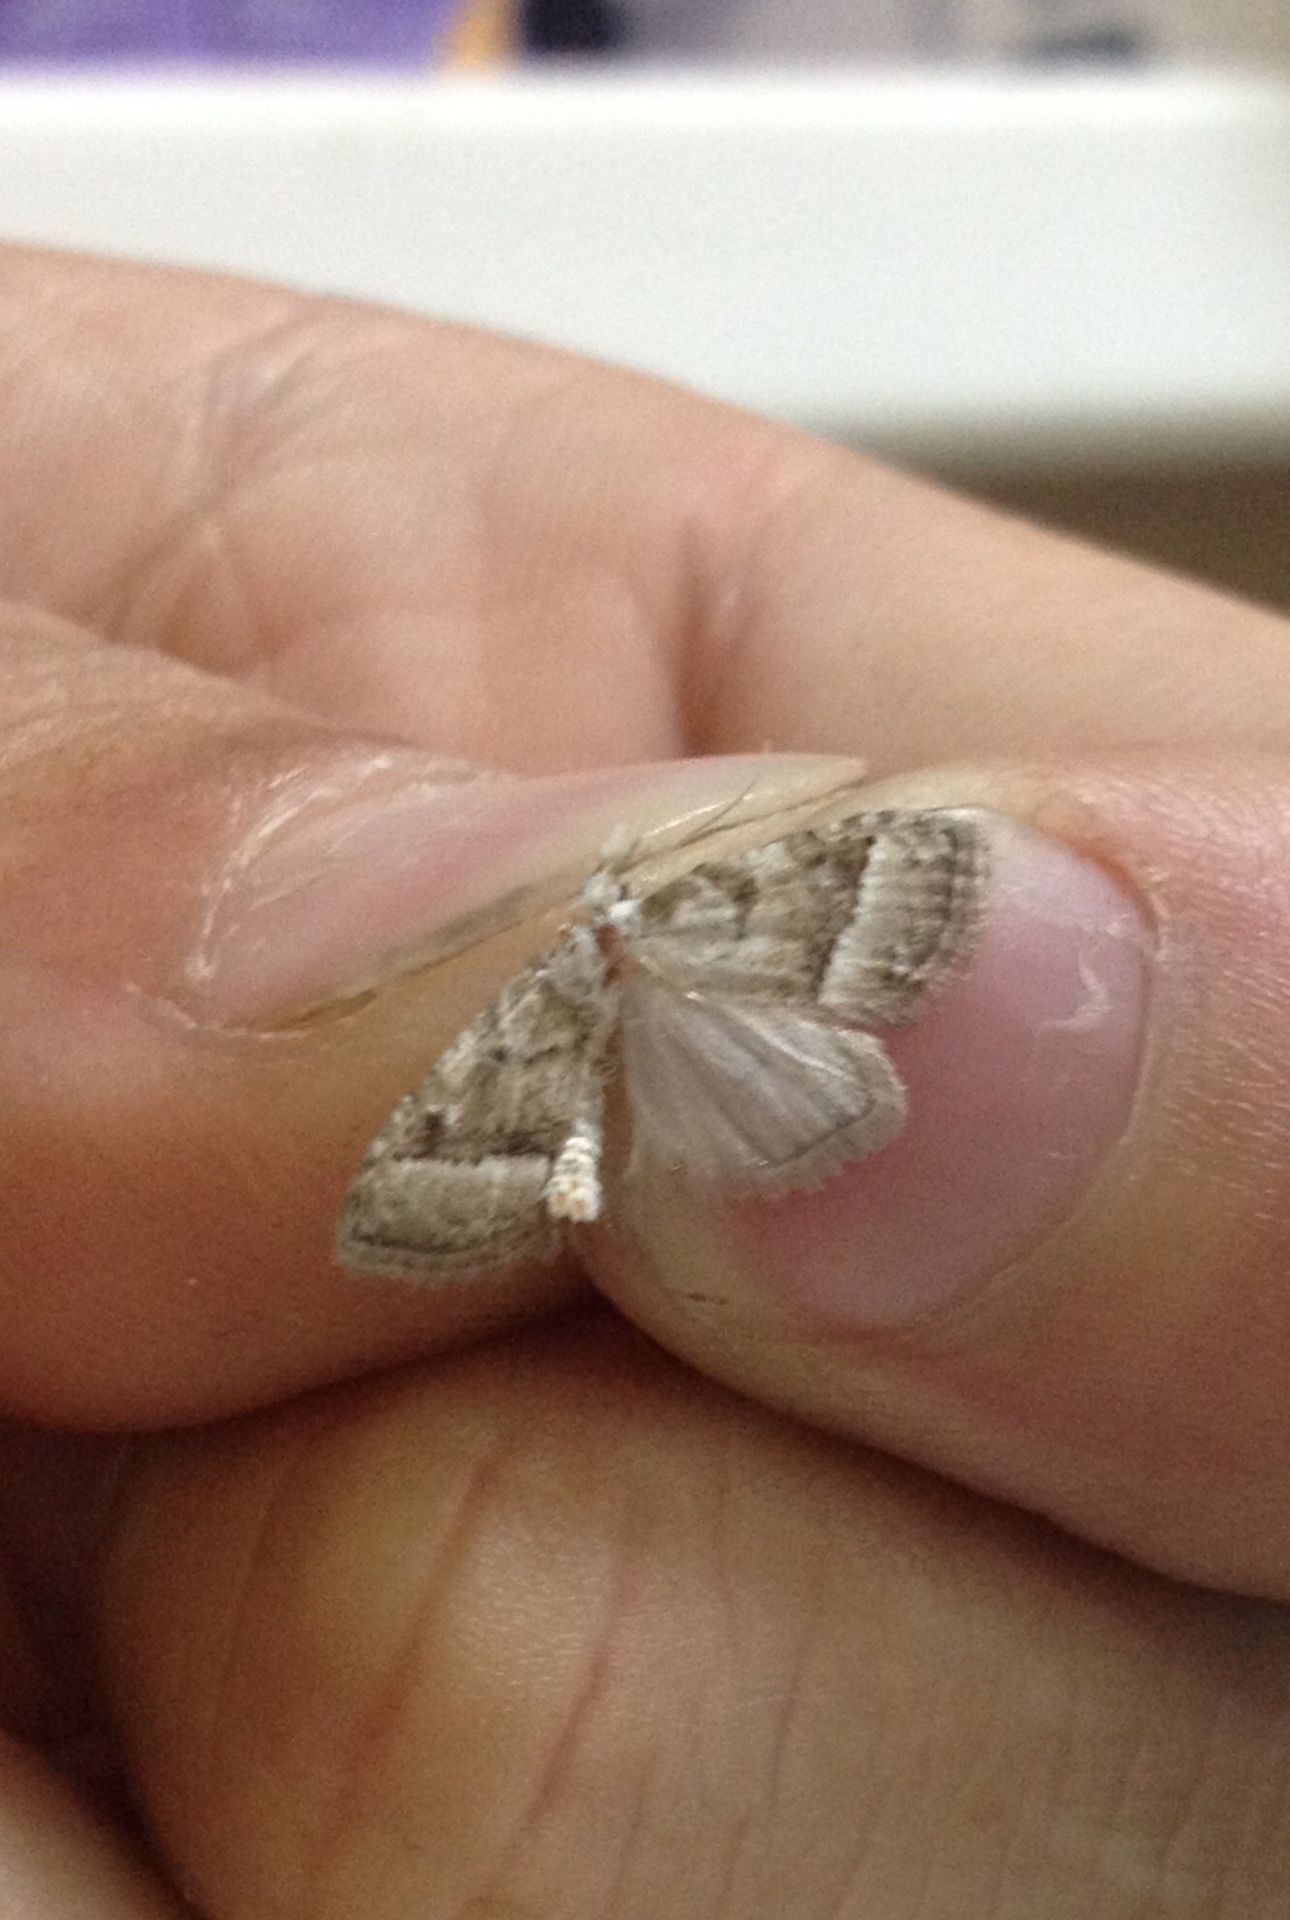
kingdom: Animalia
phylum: Arthropoda
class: Insecta
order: Lepidoptera
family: Nolidae
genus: Nola
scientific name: Nola aerugula
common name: Scarce black arches
